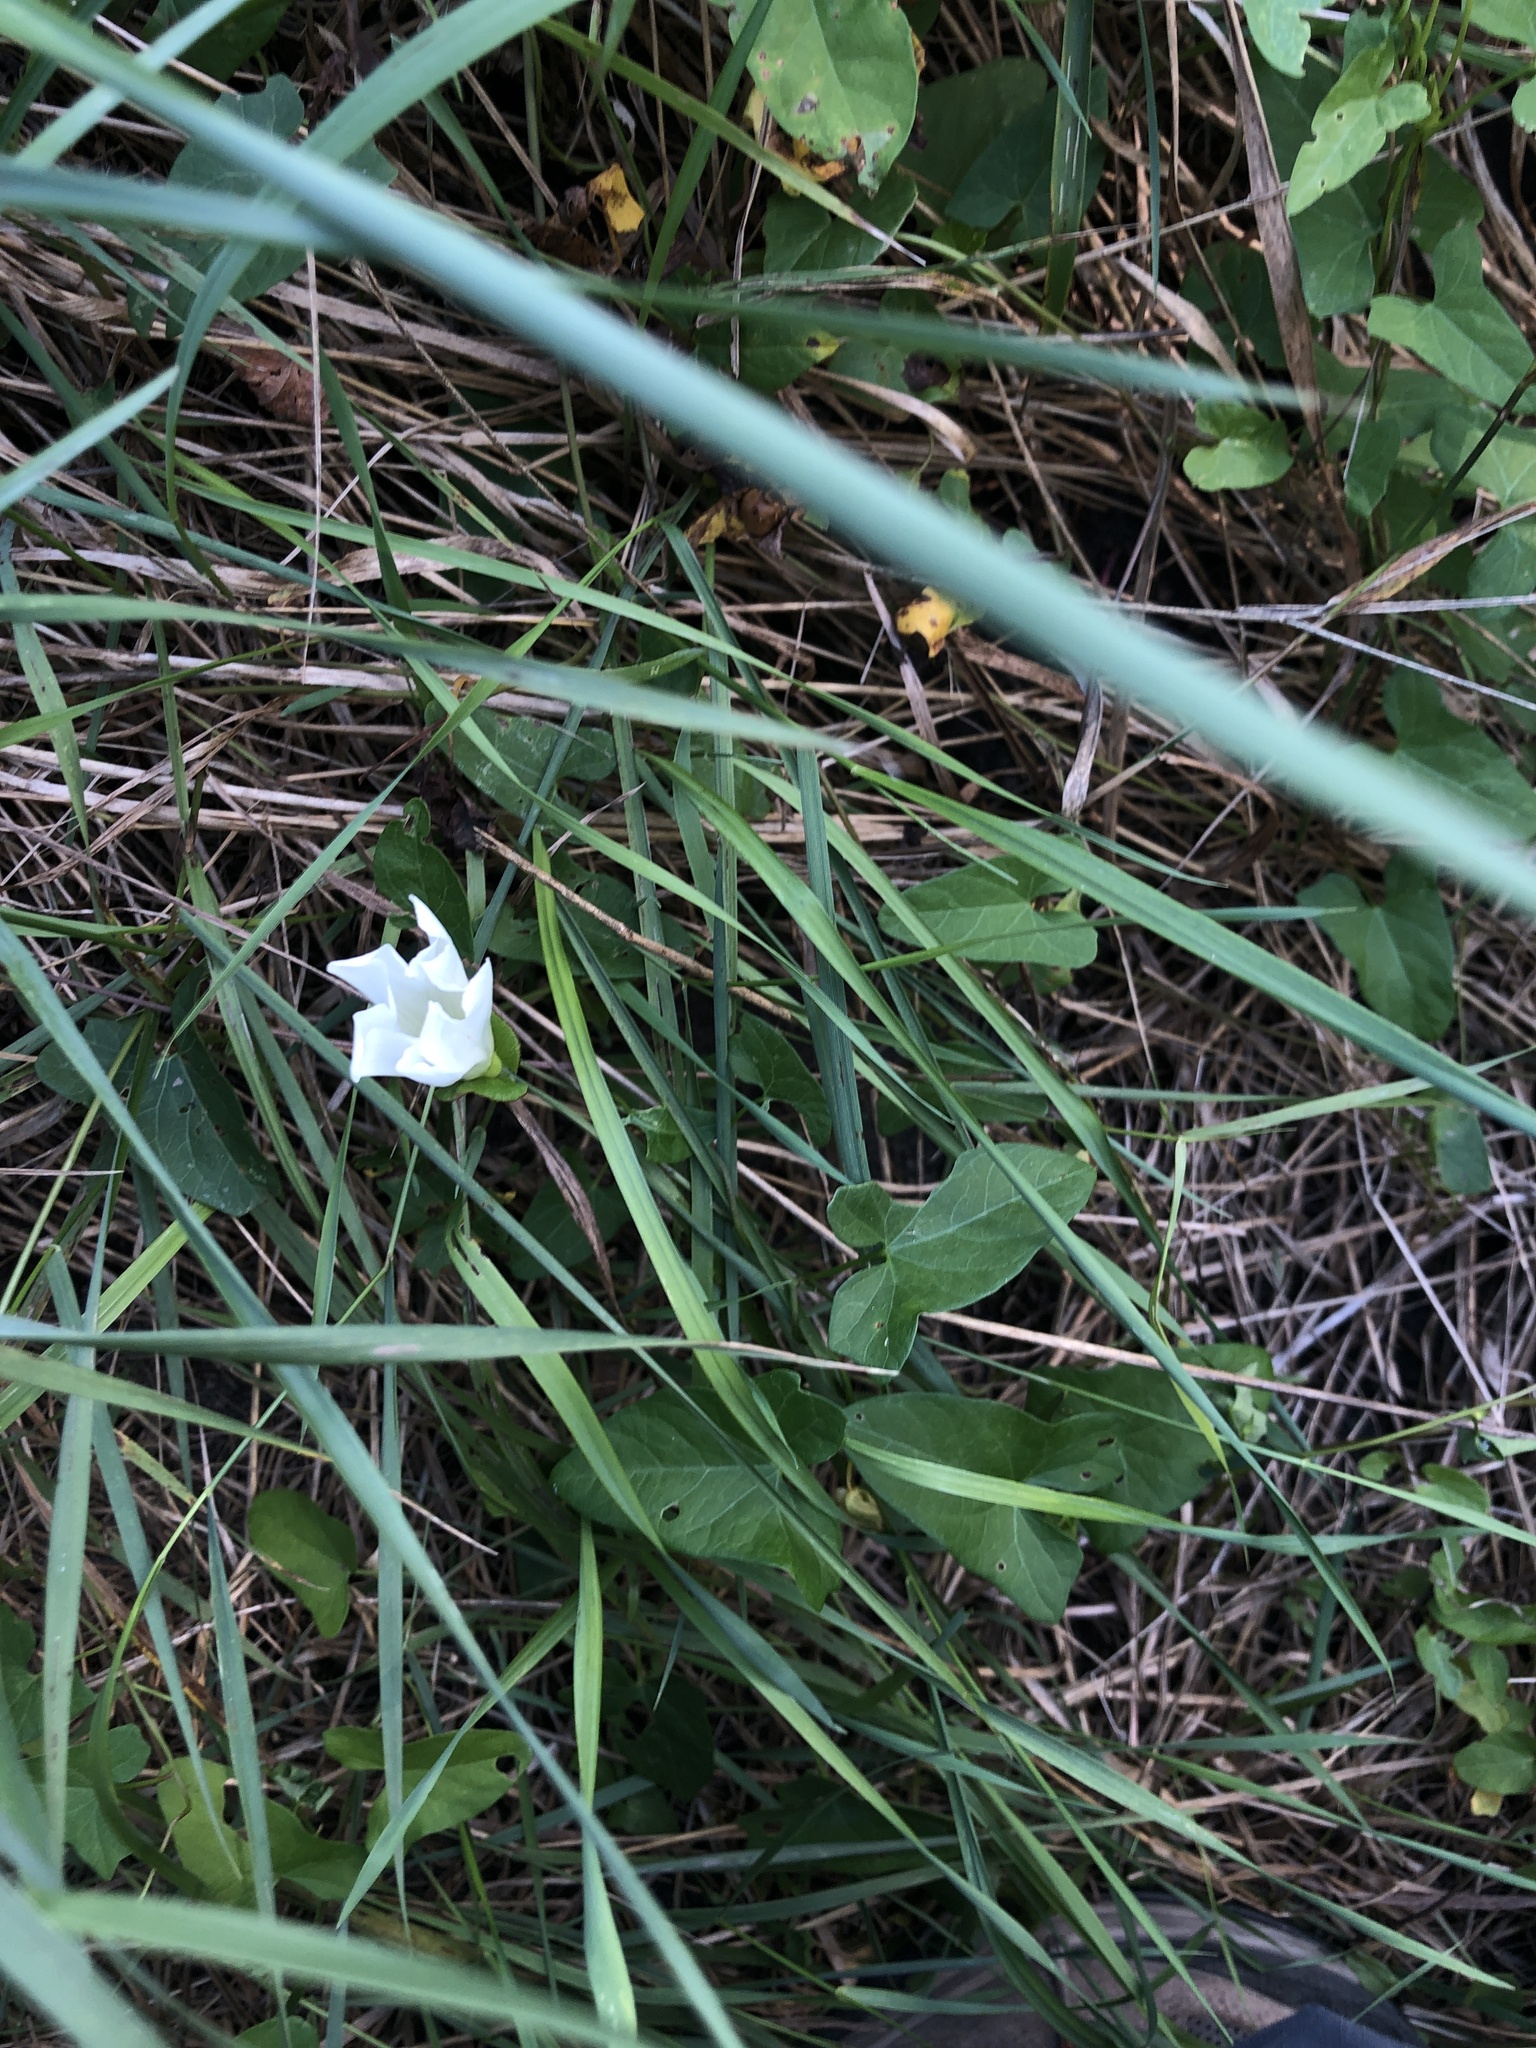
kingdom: Plantae
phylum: Tracheophyta
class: Magnoliopsida
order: Solanales
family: Convolvulaceae
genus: Calystegia
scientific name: Calystegia sepium
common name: Hedge bindweed
